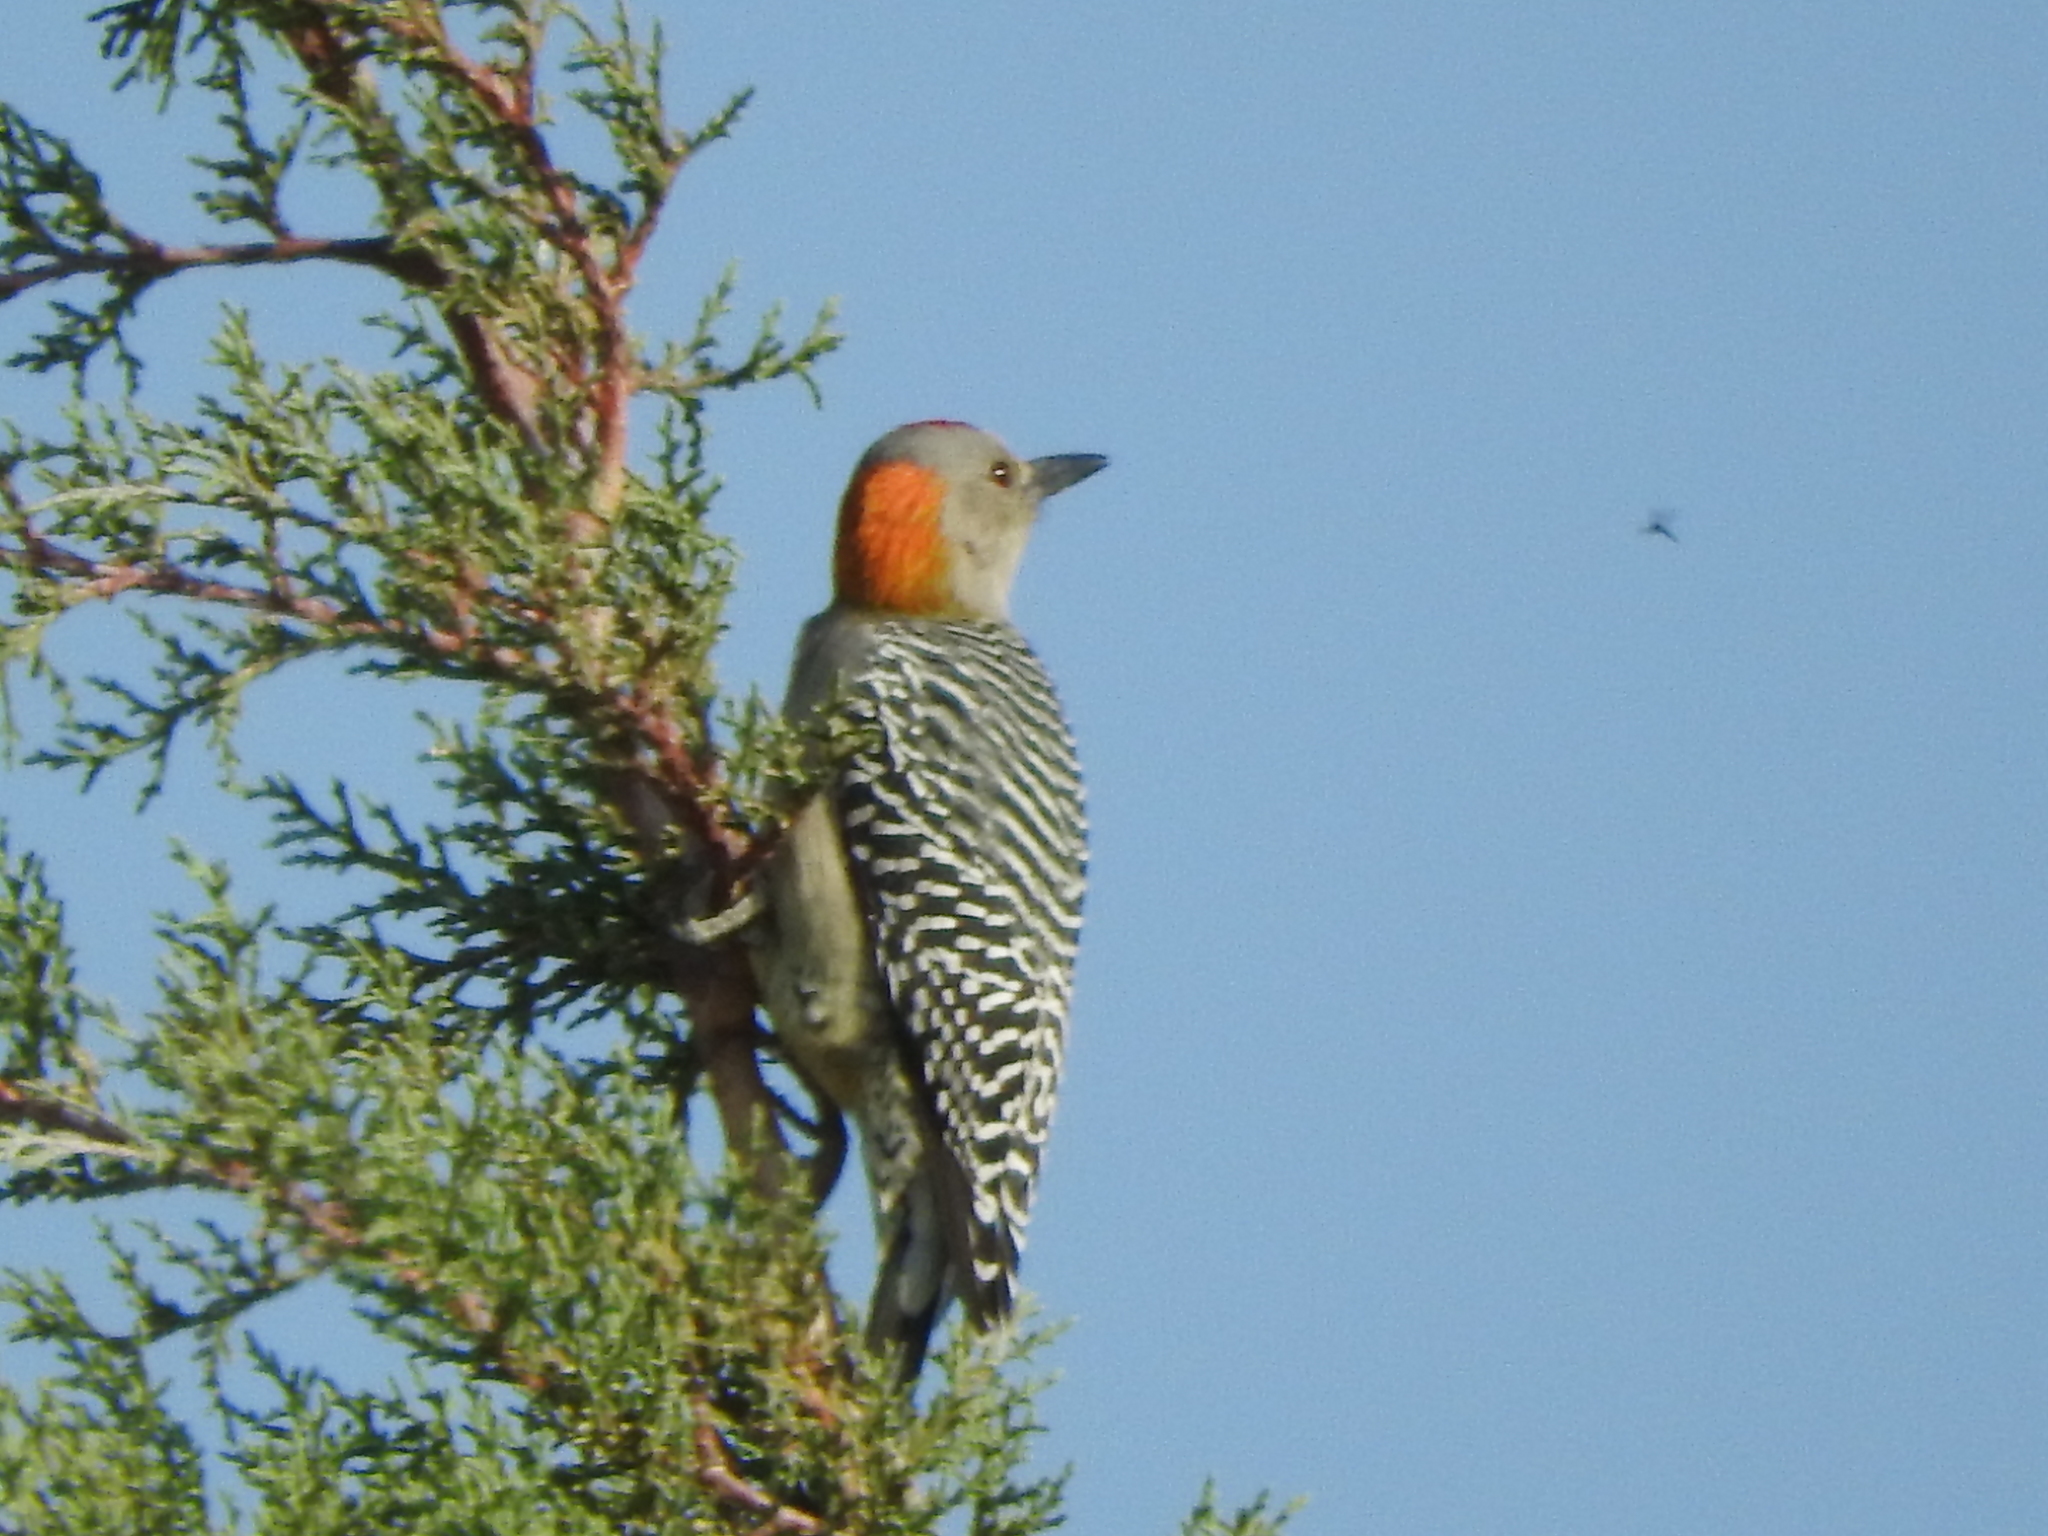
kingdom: Animalia
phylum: Chordata
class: Aves
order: Piciformes
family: Picidae
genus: Melanerpes
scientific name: Melanerpes aurifrons
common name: Golden-fronted woodpecker
